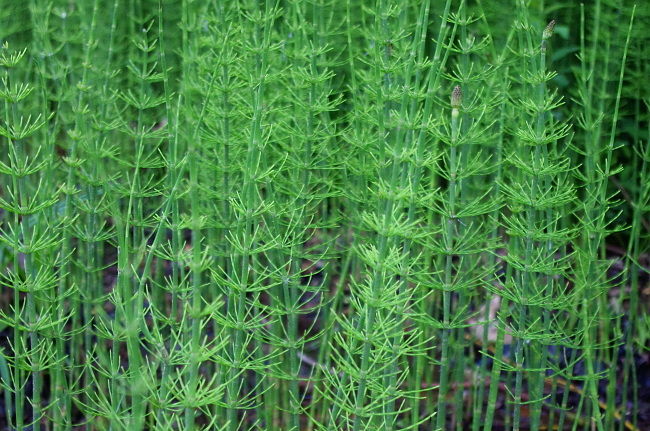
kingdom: Plantae
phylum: Tracheophyta
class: Polypodiopsida
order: Equisetales
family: Equisetaceae
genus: Equisetum
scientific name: Equisetum fluviatile
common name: Water horsetail
